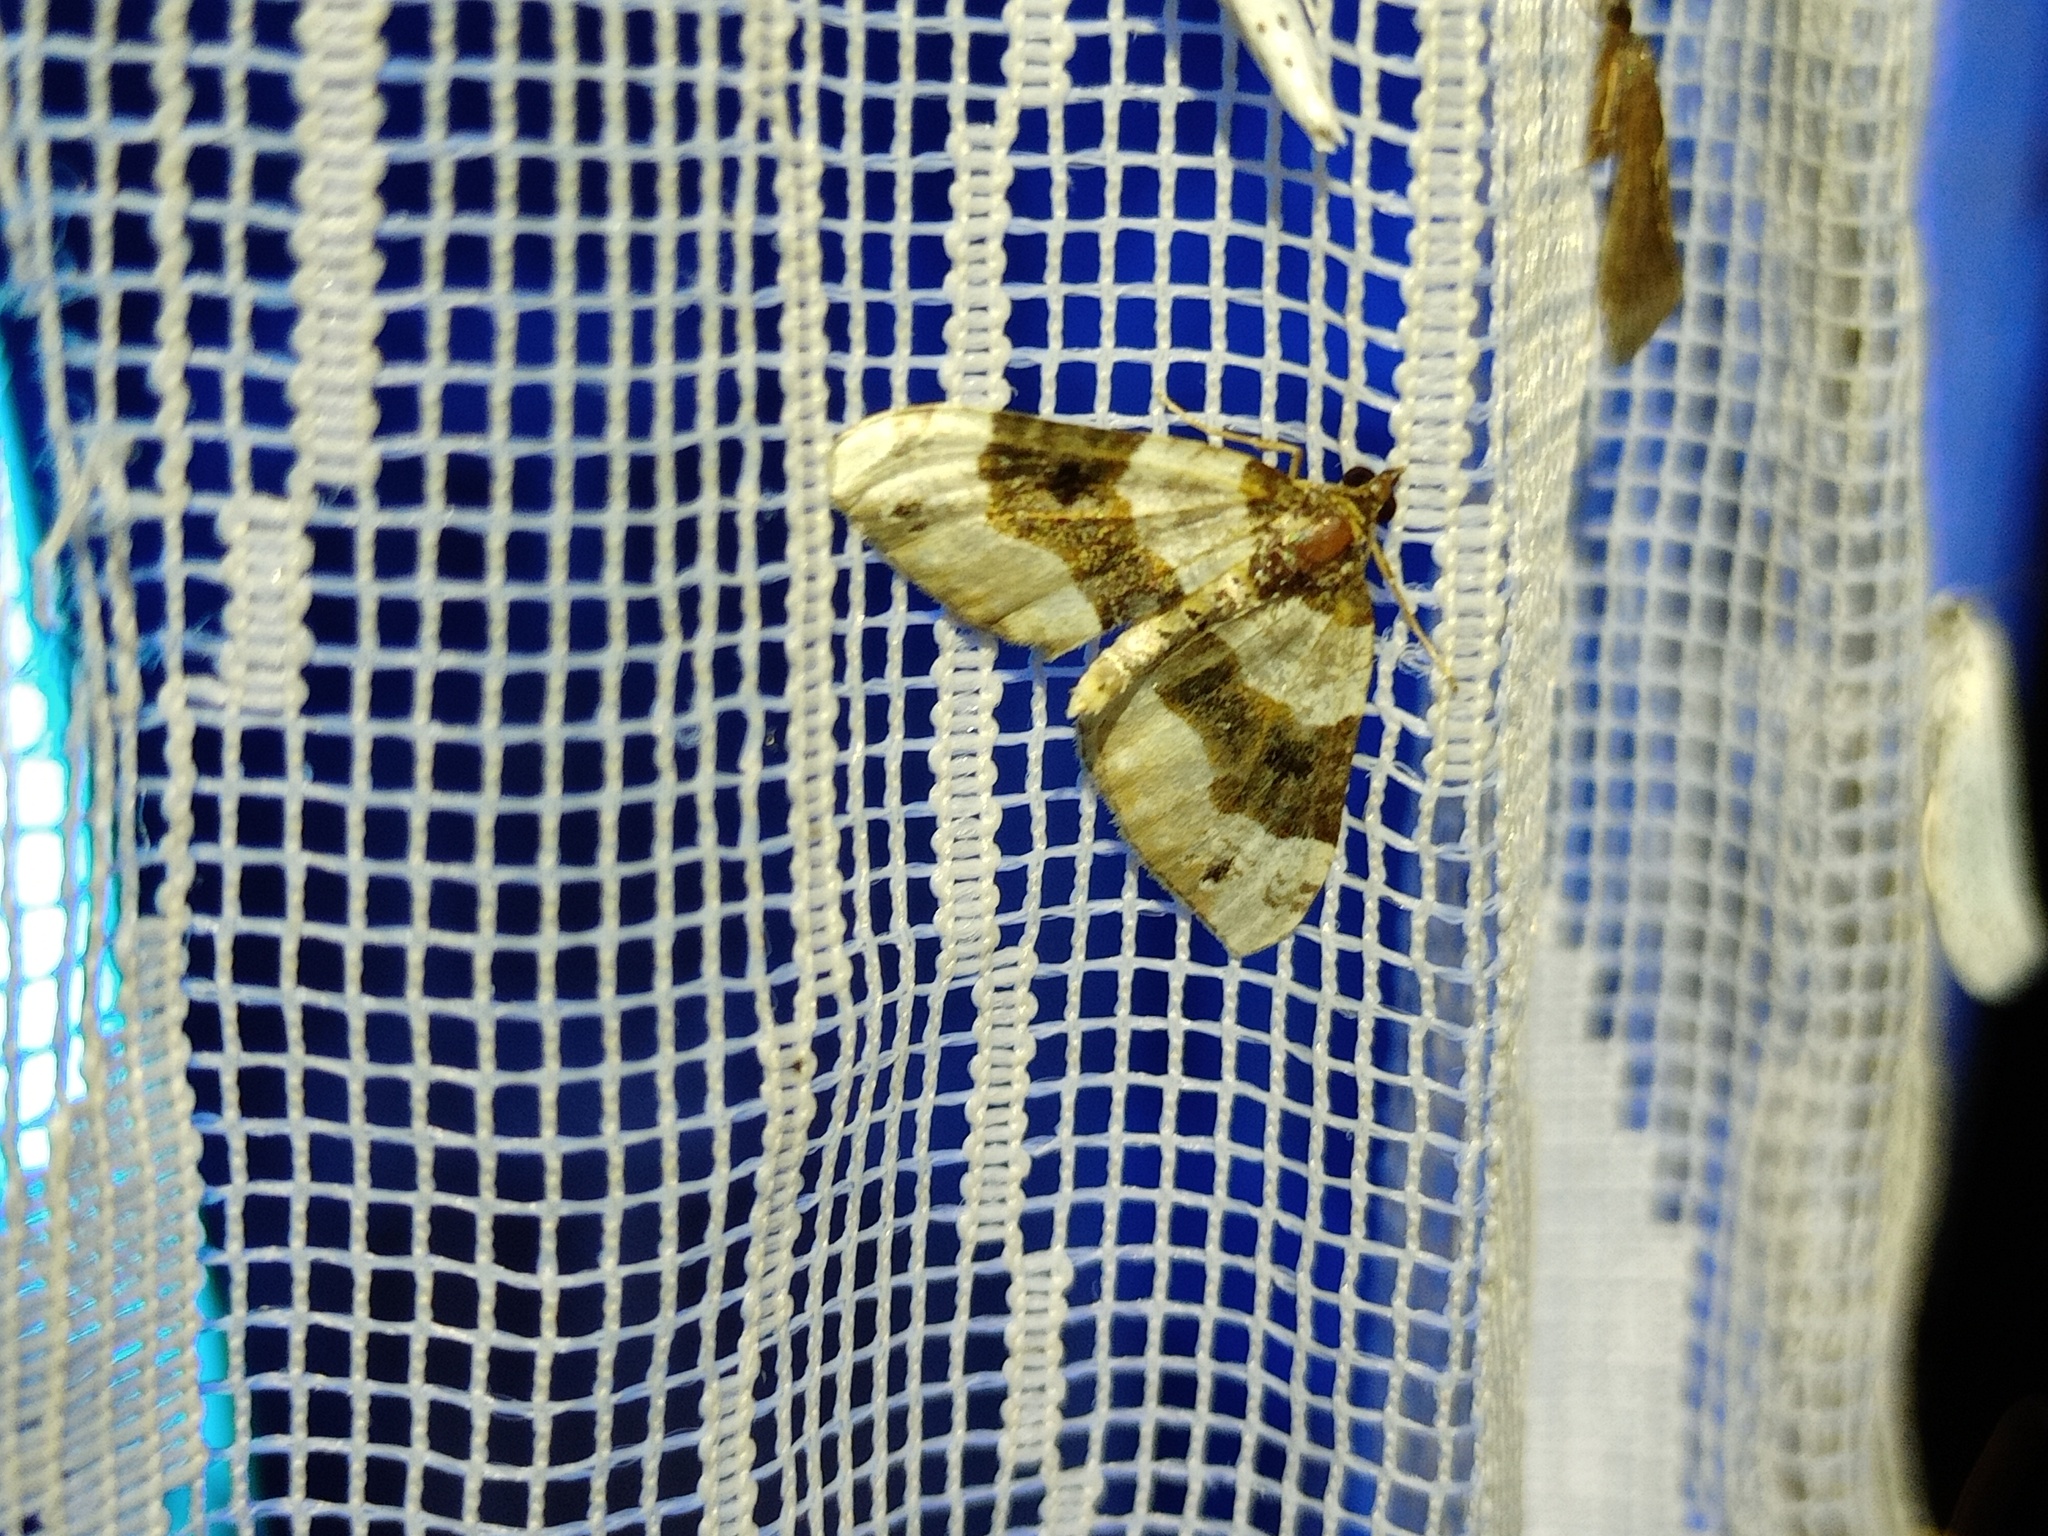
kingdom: Animalia
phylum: Arthropoda
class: Insecta
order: Lepidoptera
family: Geometridae
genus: Cosmorhoe
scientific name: Cosmorhoe ocellata
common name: Purple bar
